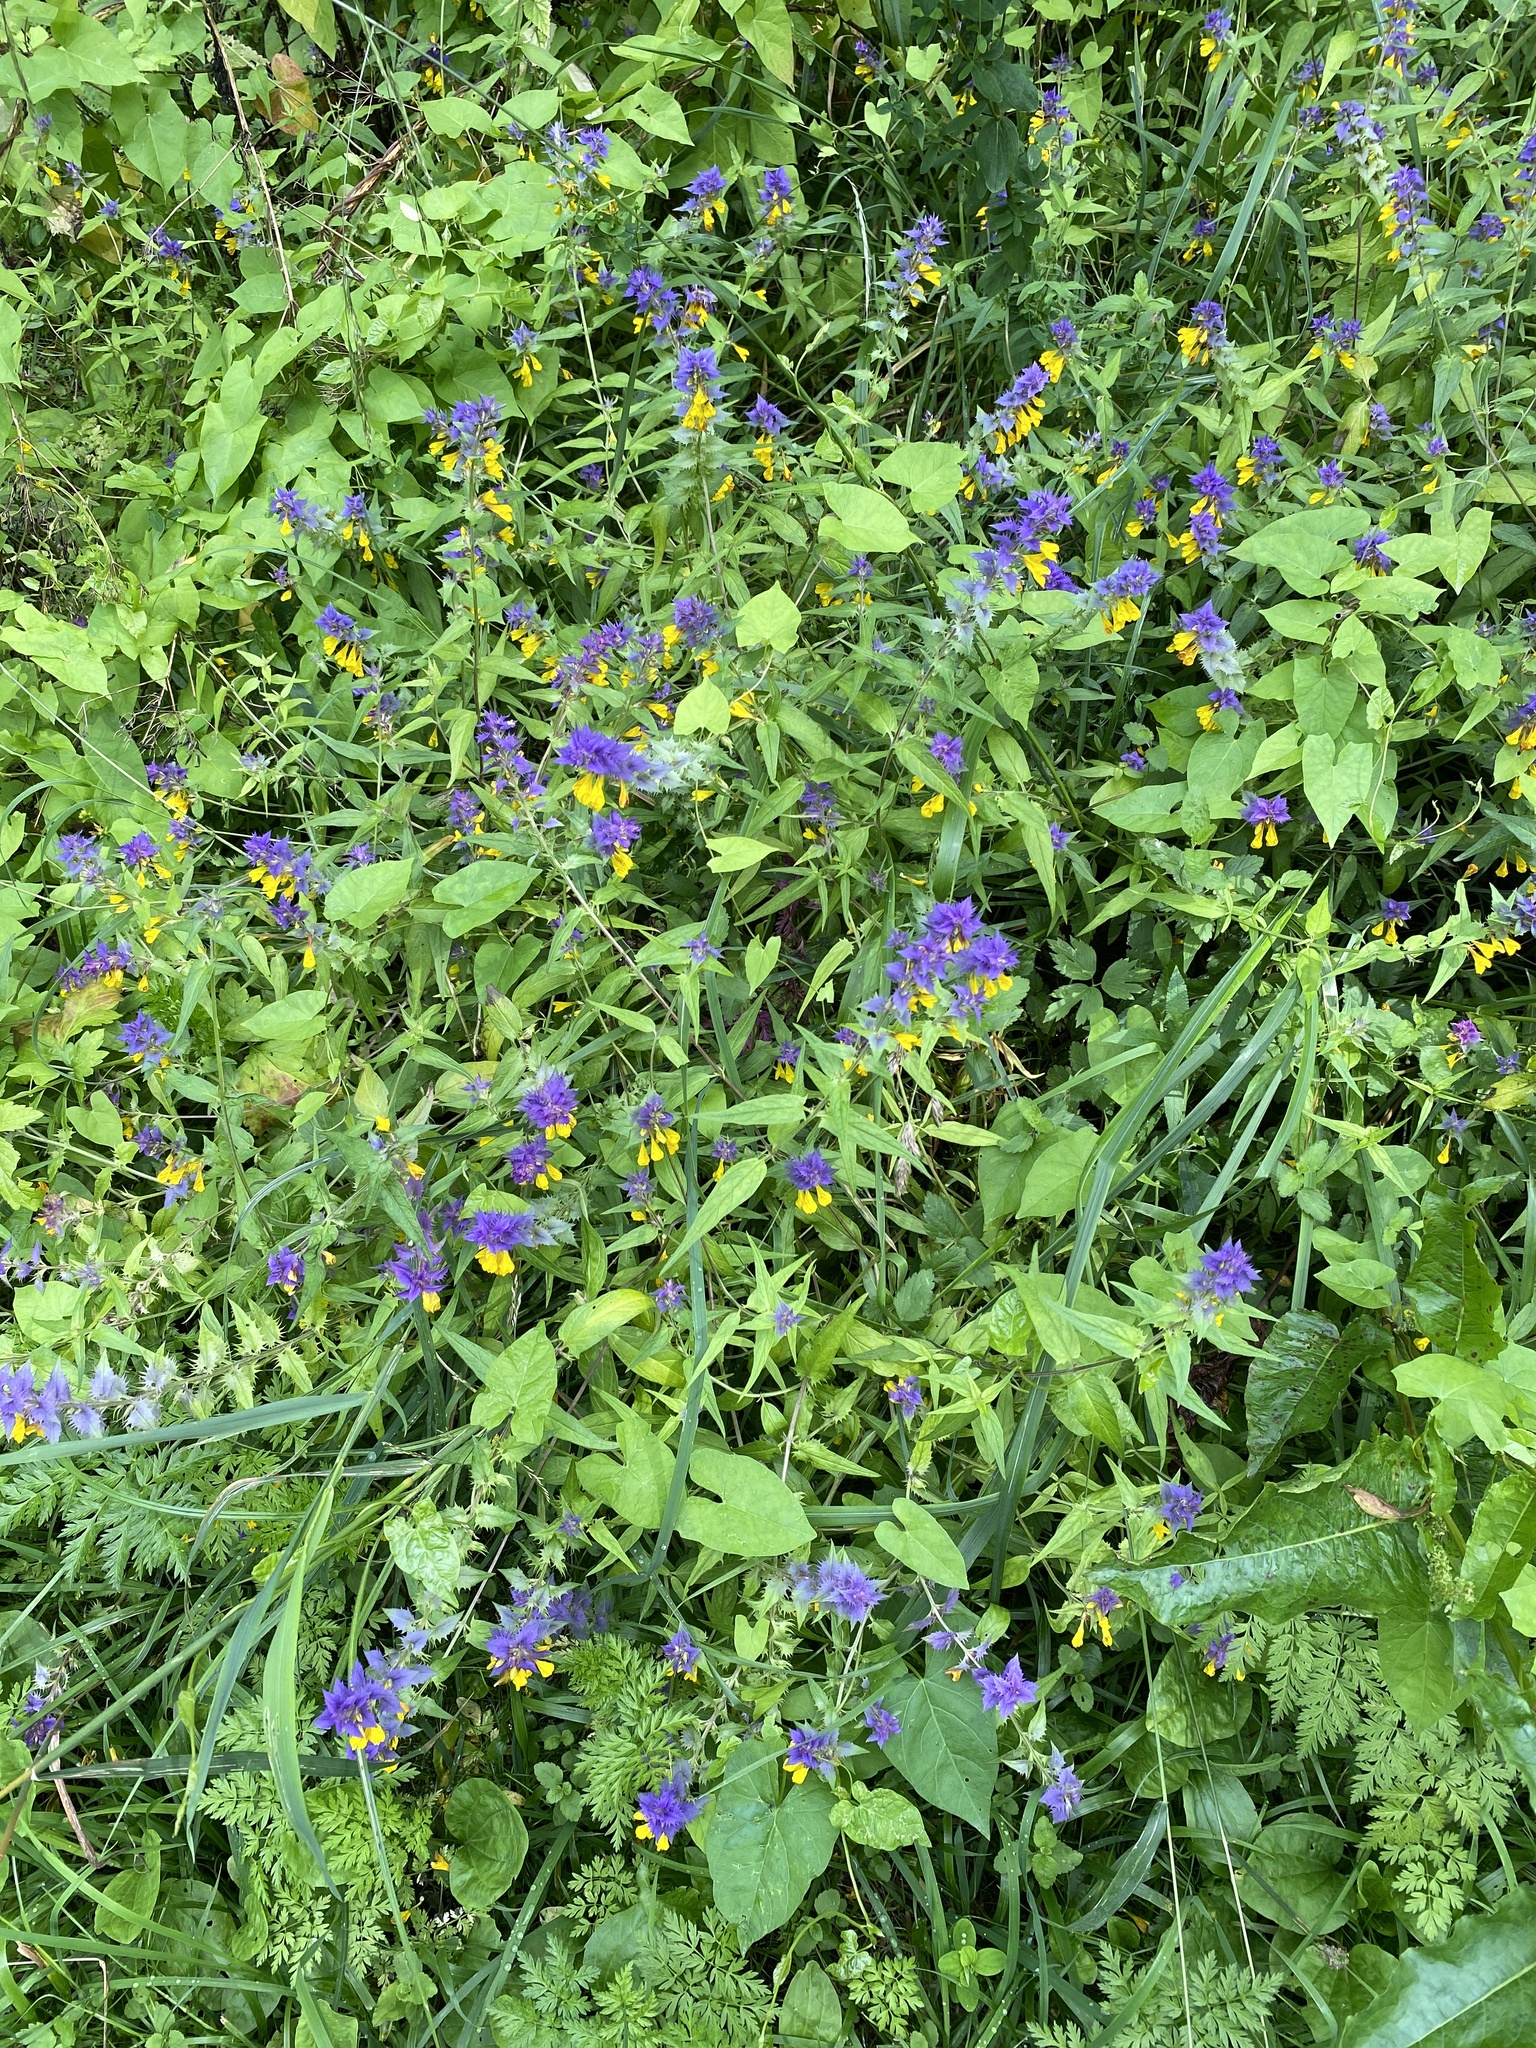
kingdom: Plantae
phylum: Tracheophyta
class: Magnoliopsida
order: Lamiales
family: Orobanchaceae
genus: Melampyrum
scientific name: Melampyrum nemorosum
